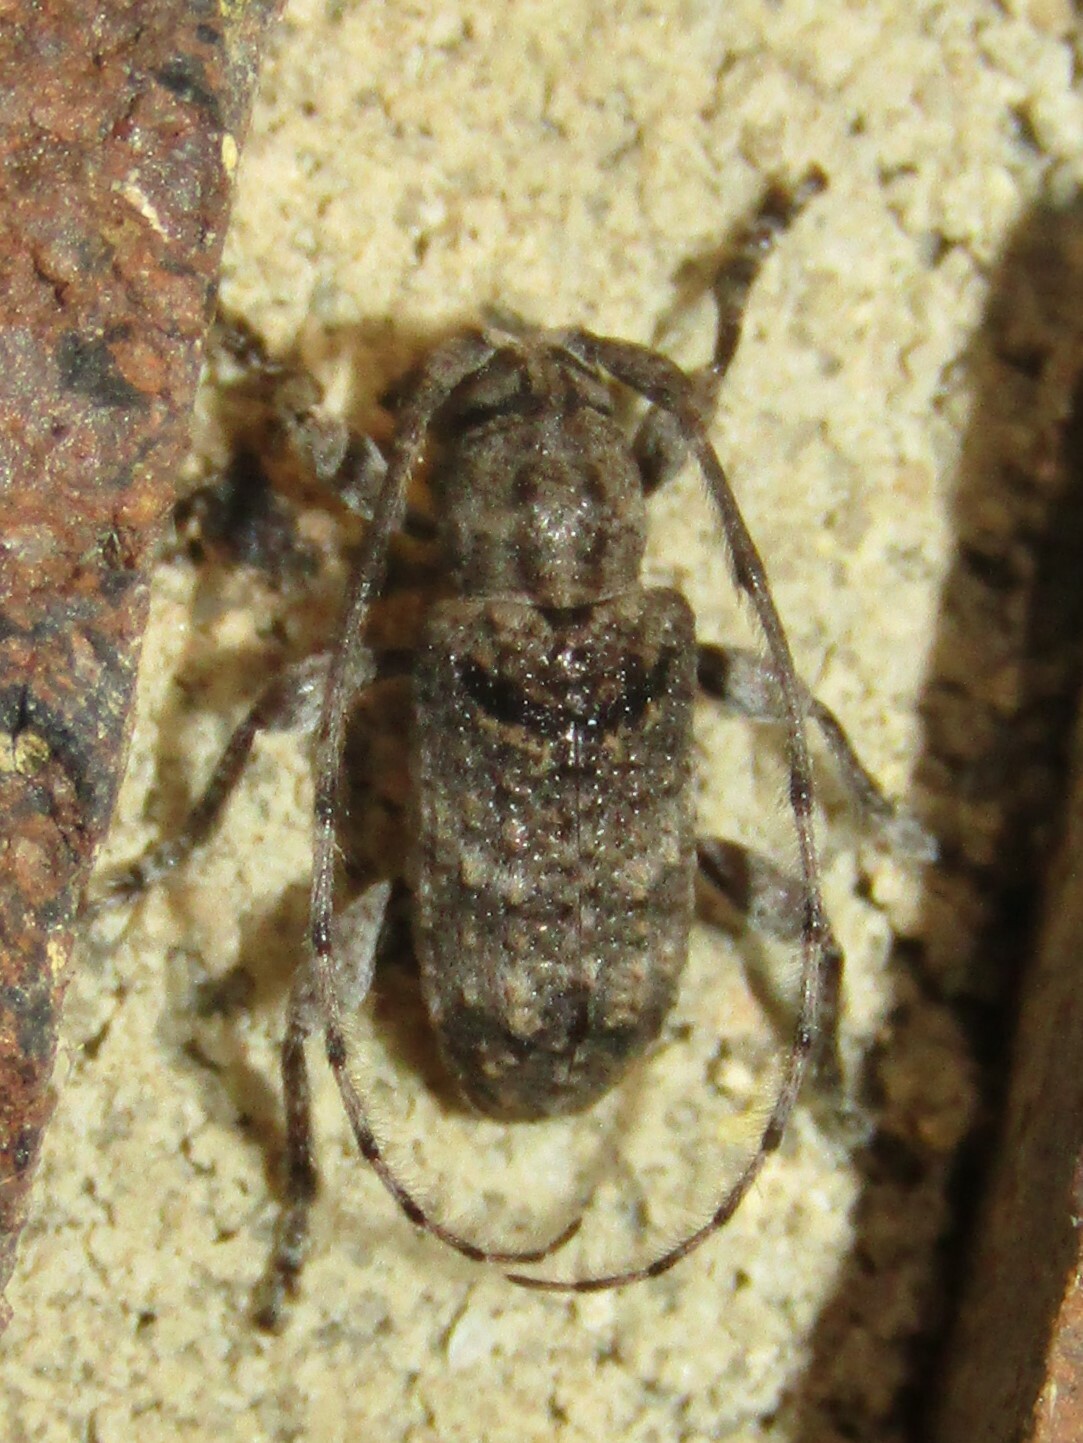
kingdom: Animalia
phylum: Arthropoda
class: Insecta
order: Coleoptera
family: Cerambycidae
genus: Ecyrus
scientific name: Ecyrus dasycerus
